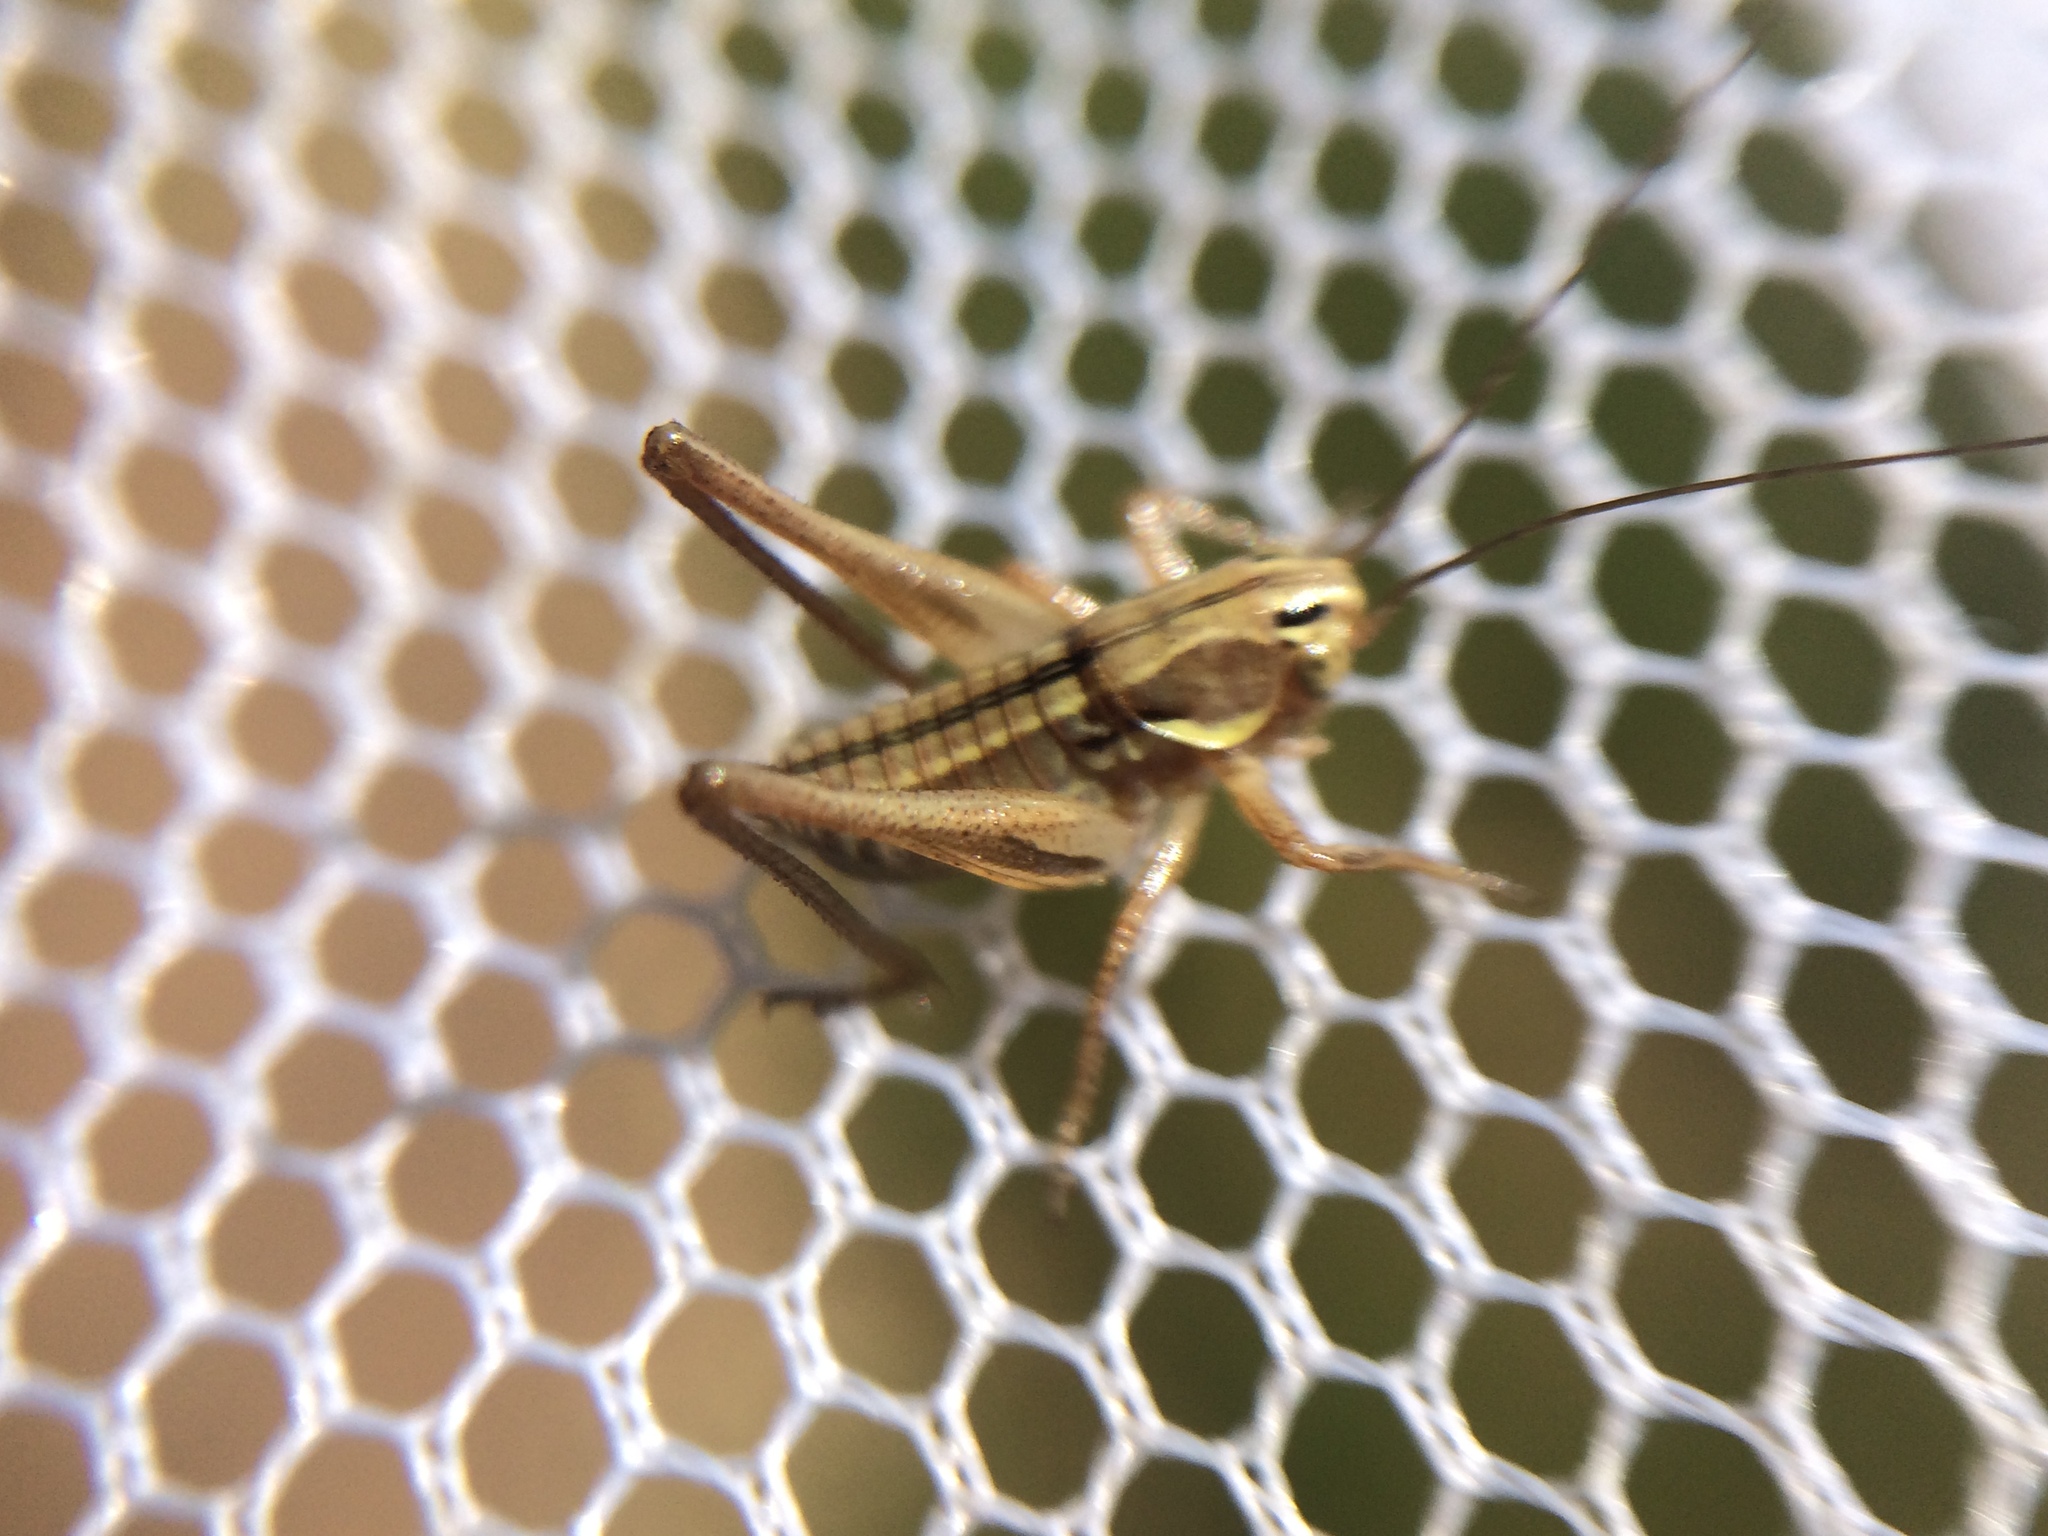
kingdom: Animalia
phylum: Arthropoda
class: Insecta
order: Orthoptera
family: Tettigoniidae
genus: Tessellana
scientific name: Tessellana tessellata
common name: Grasshopper
